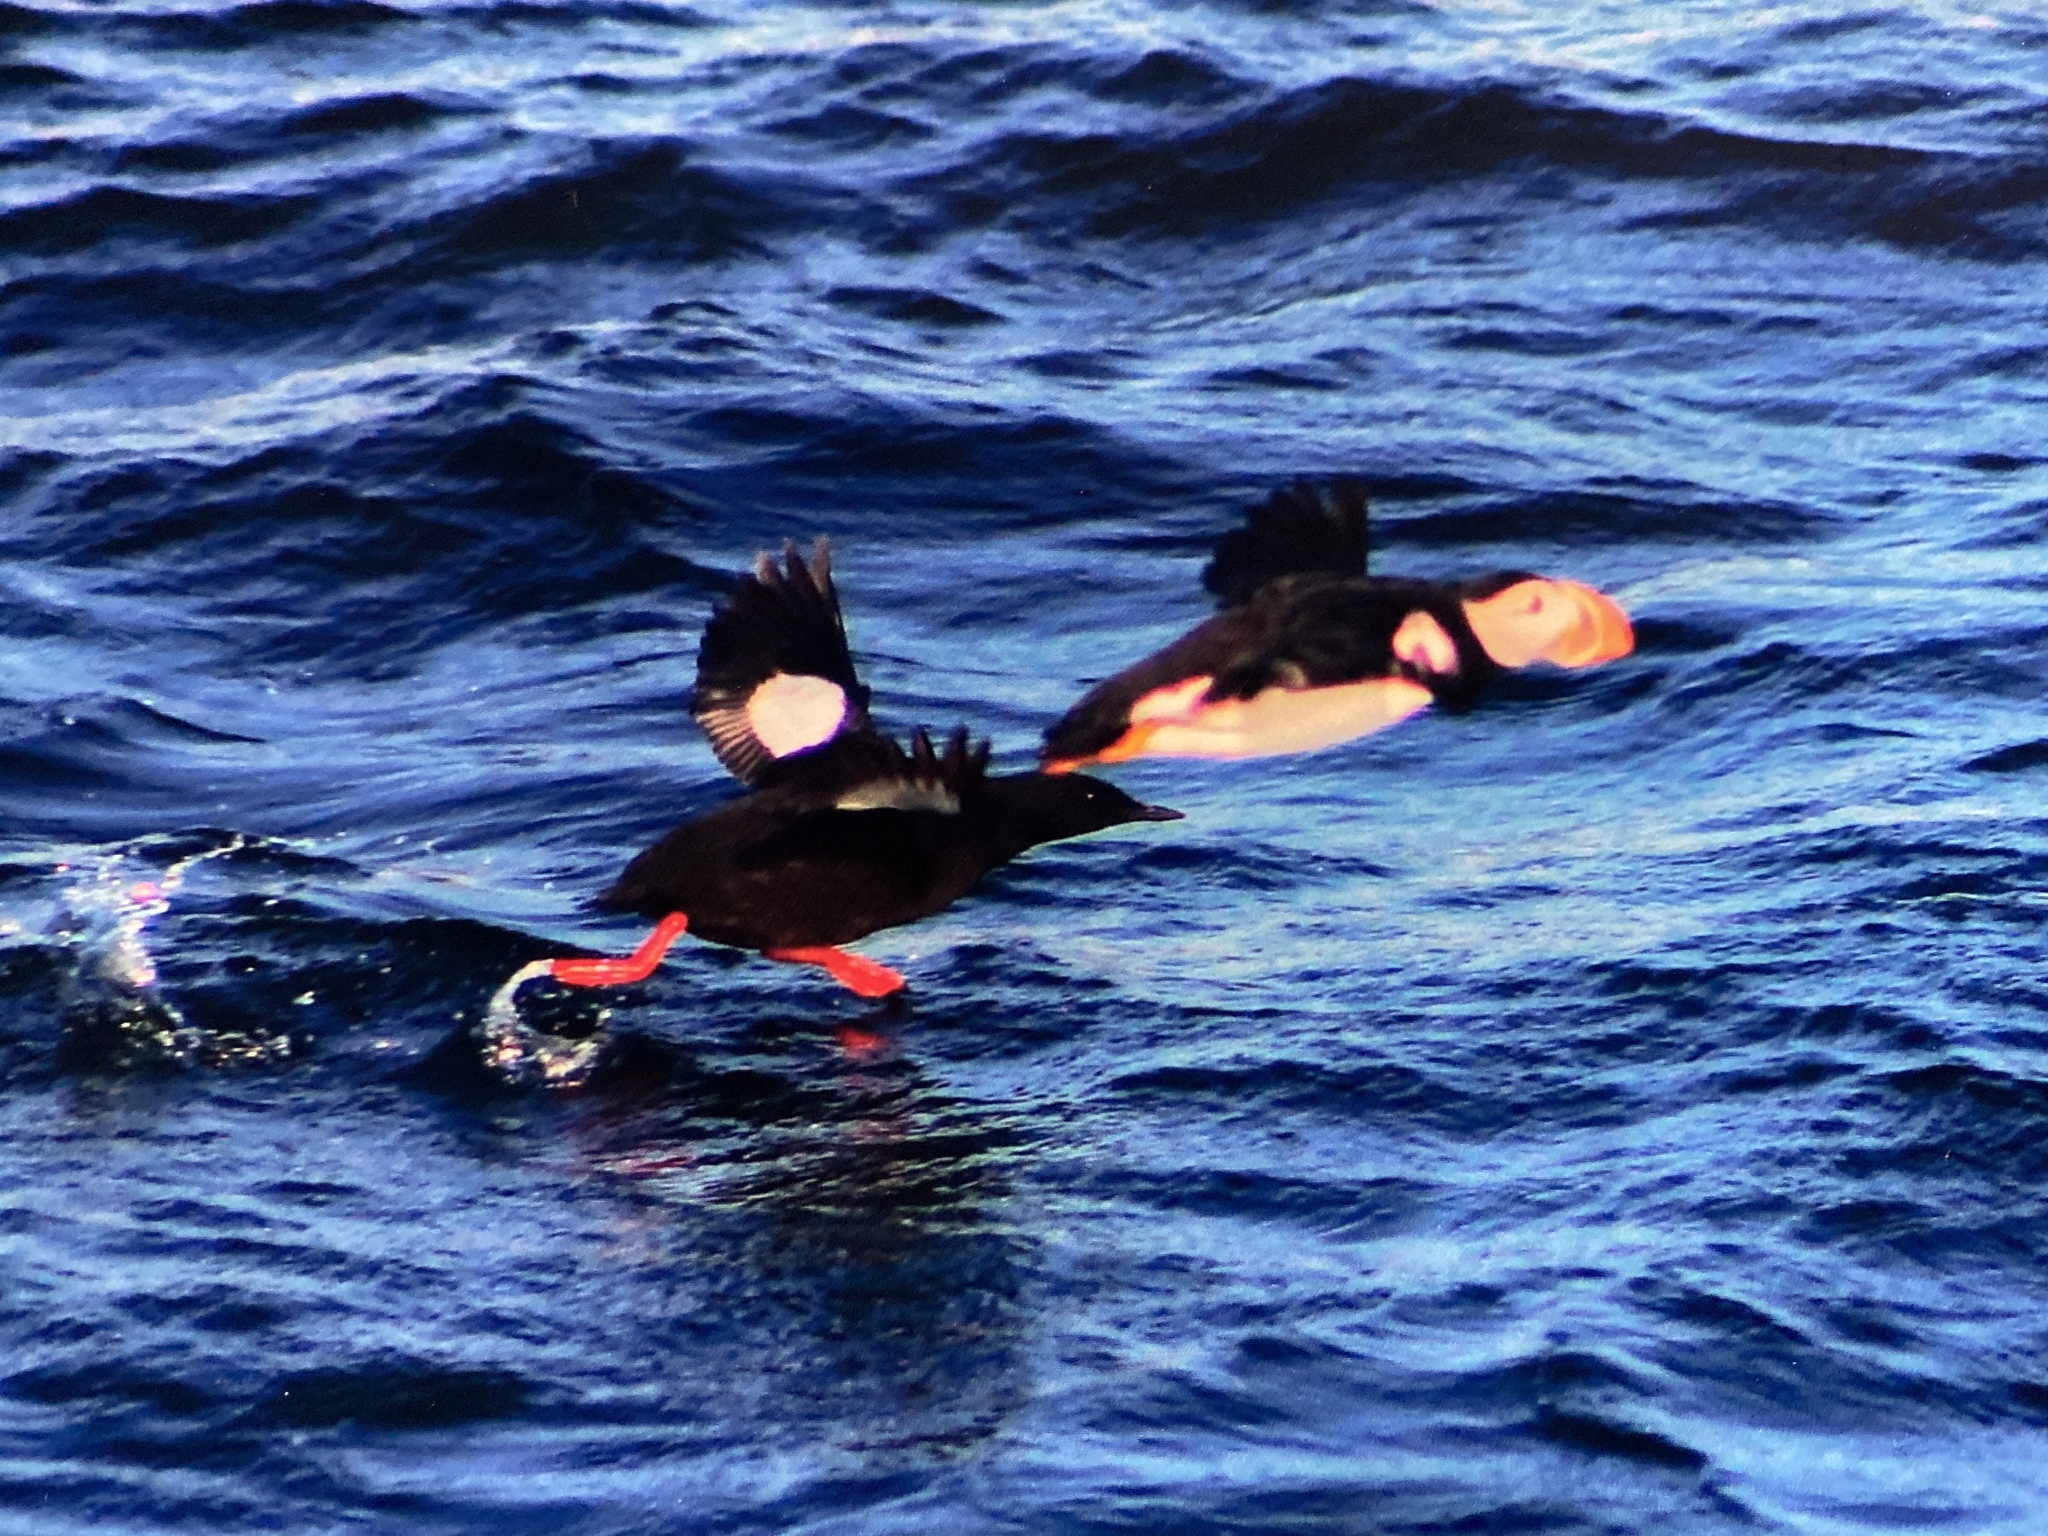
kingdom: Animalia
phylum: Chordata
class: Aves
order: Charadriiformes
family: Alcidae
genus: Cepphus
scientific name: Cepphus grylle
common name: Black guillemot
